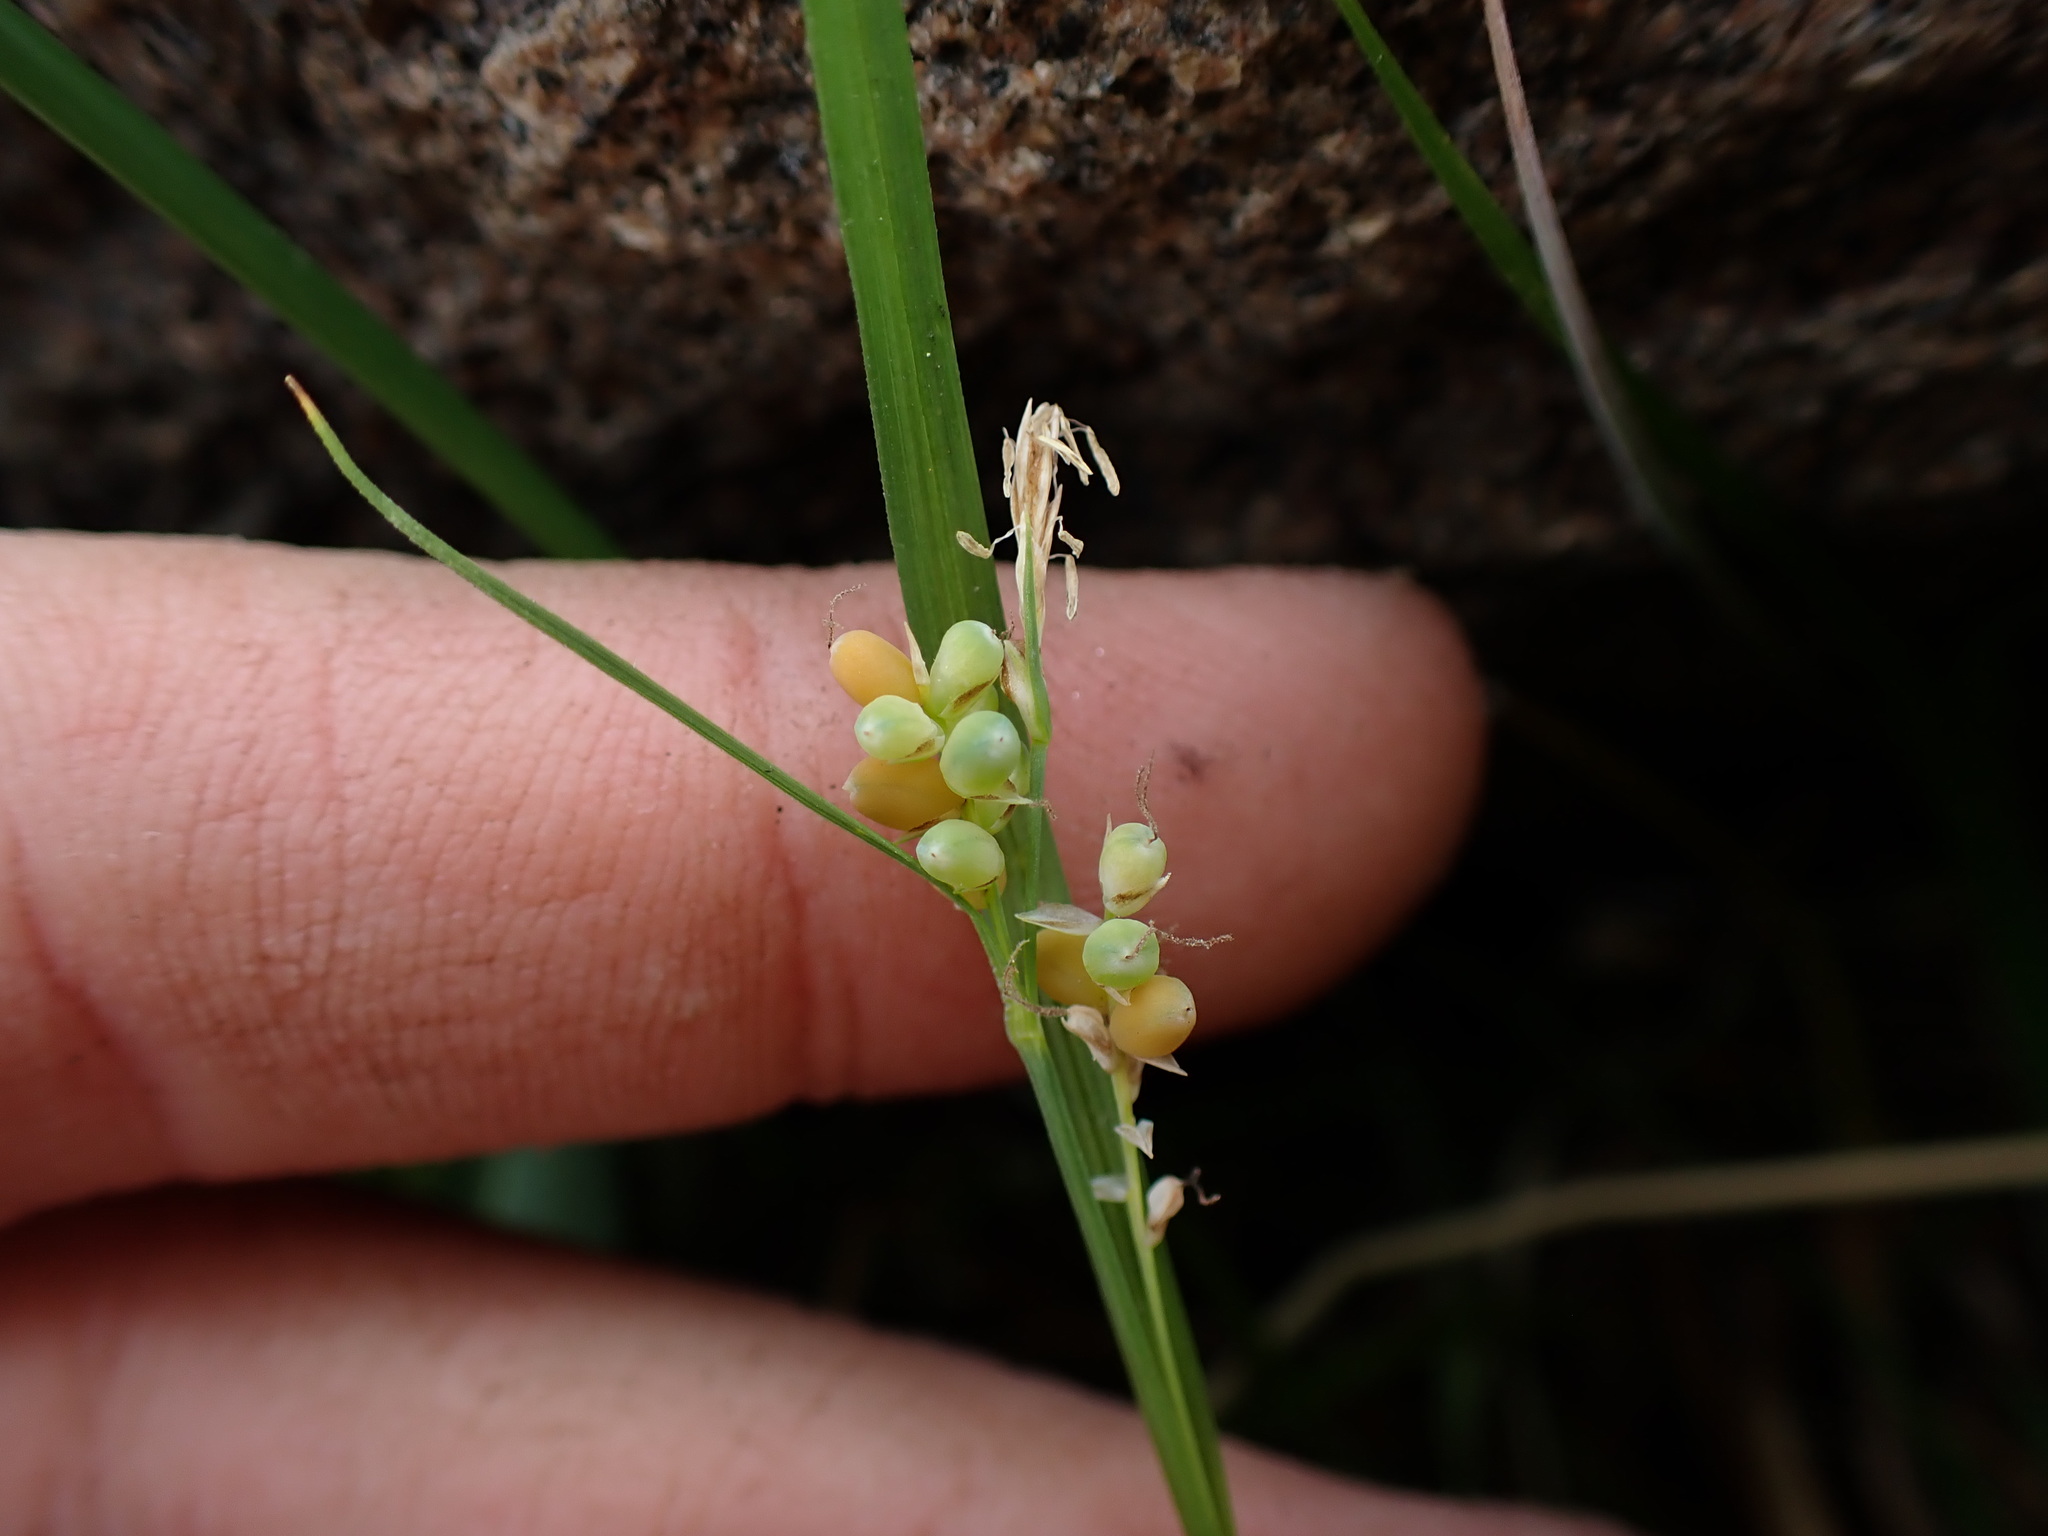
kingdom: Plantae
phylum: Tracheophyta
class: Liliopsida
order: Poales
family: Cyperaceae
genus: Carex
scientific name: Carex aurea
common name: Golden sedge
